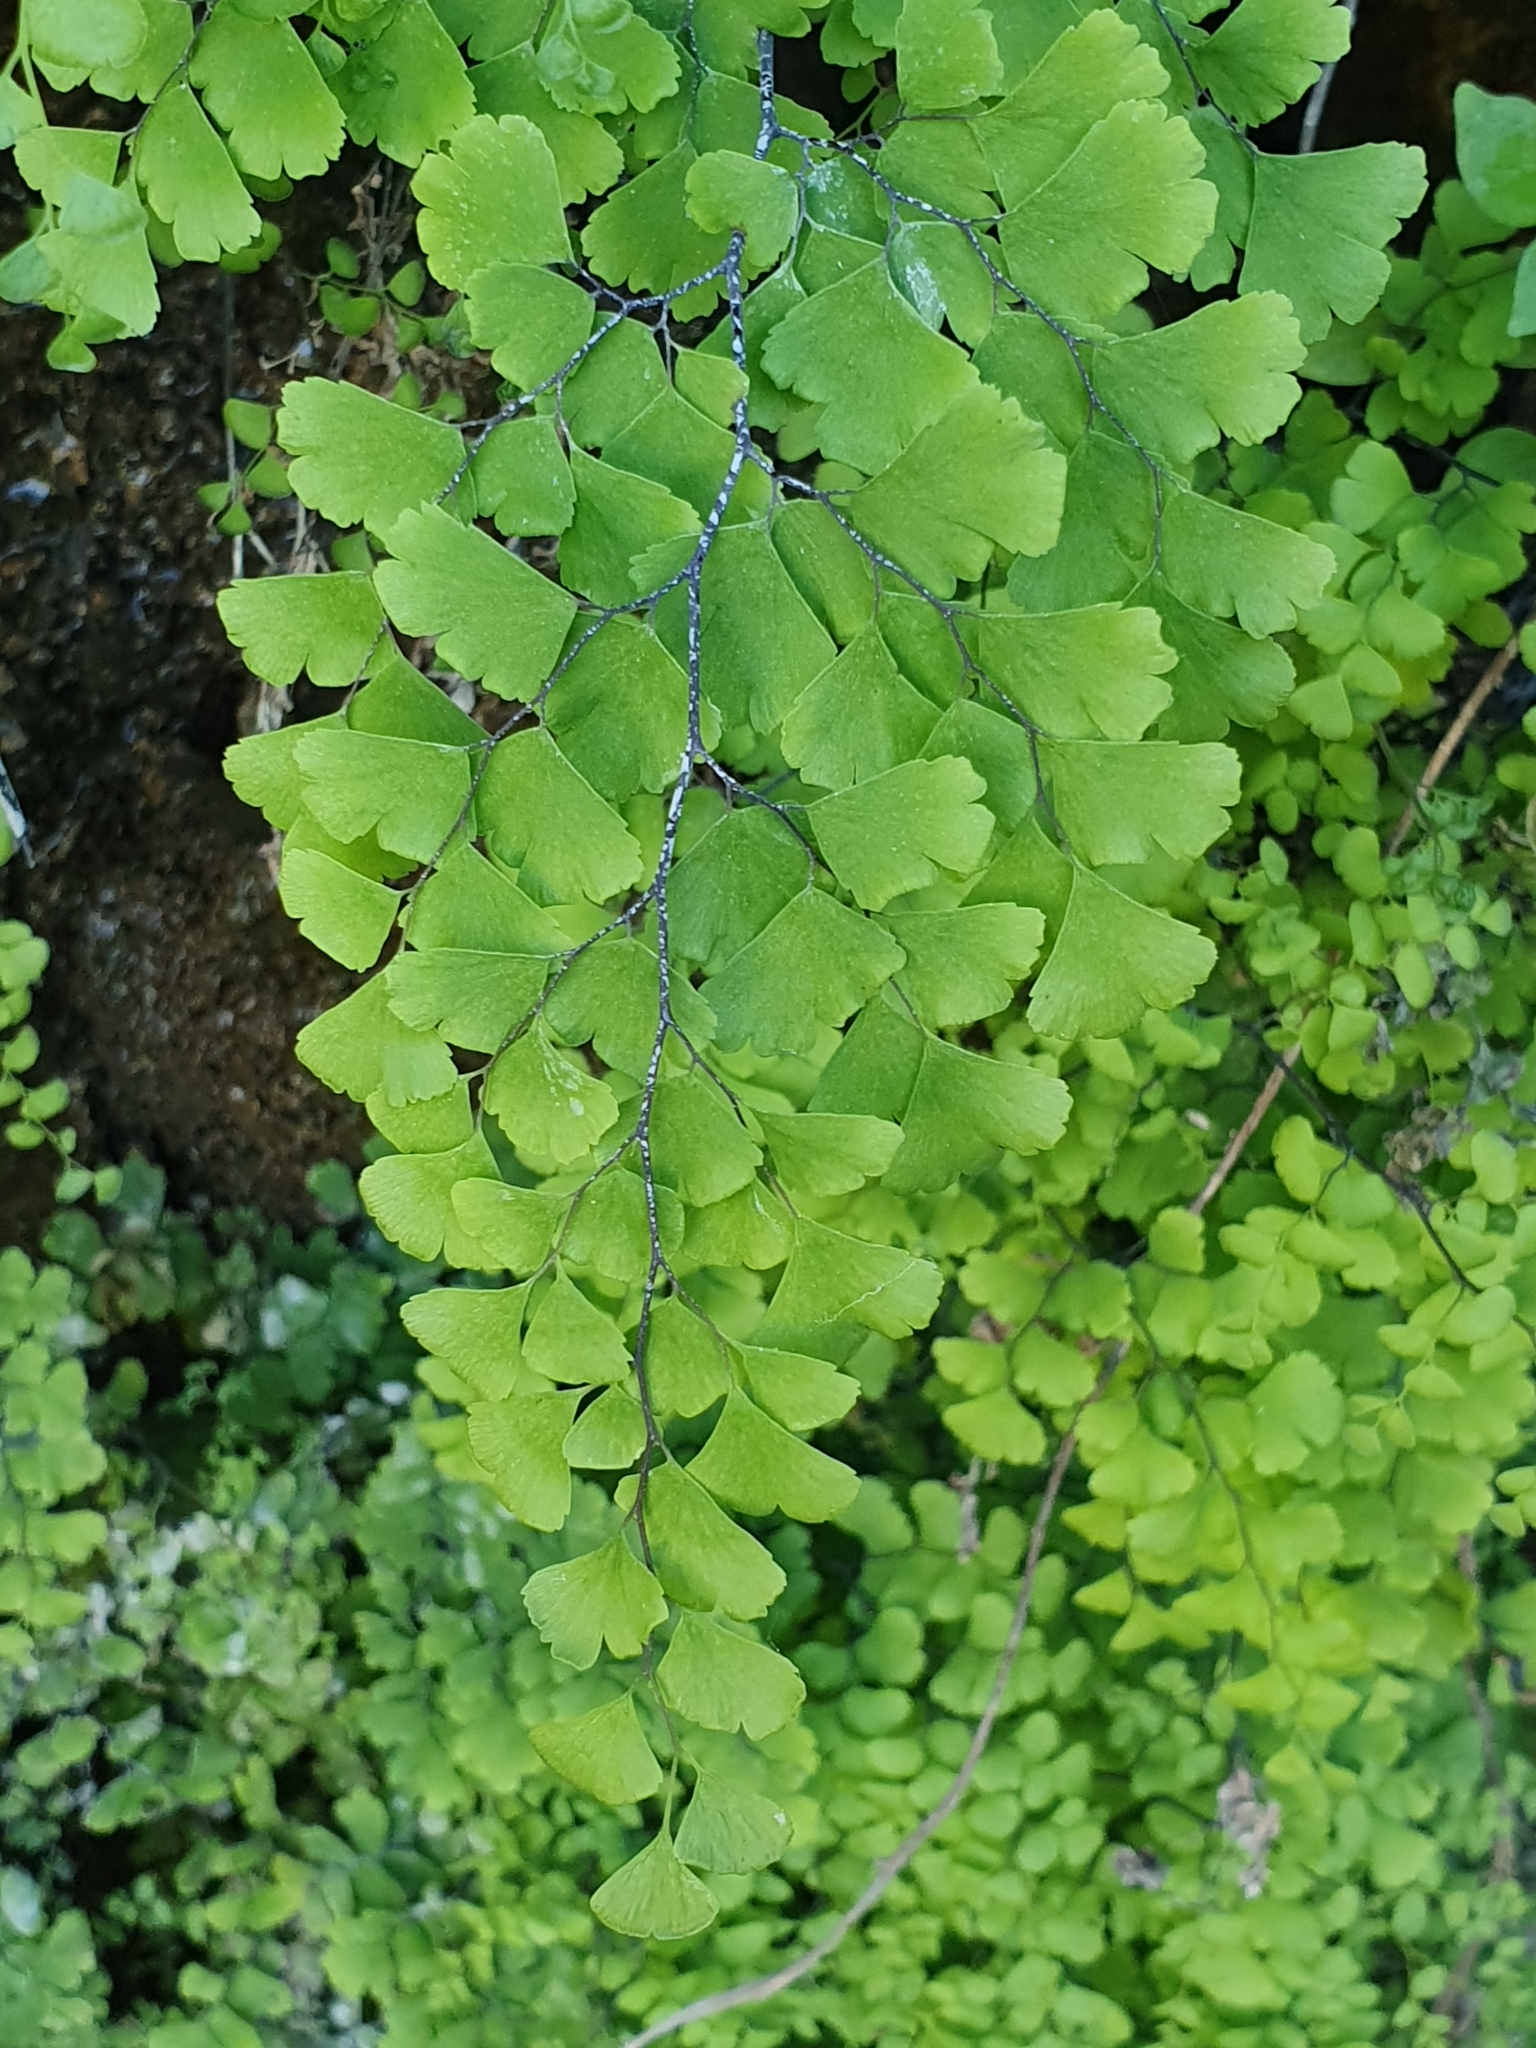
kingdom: Plantae
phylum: Tracheophyta
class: Polypodiopsida
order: Polypodiales
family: Pteridaceae
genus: Adiantum
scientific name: Adiantum capillus-veneris
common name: Maidenhair fern
